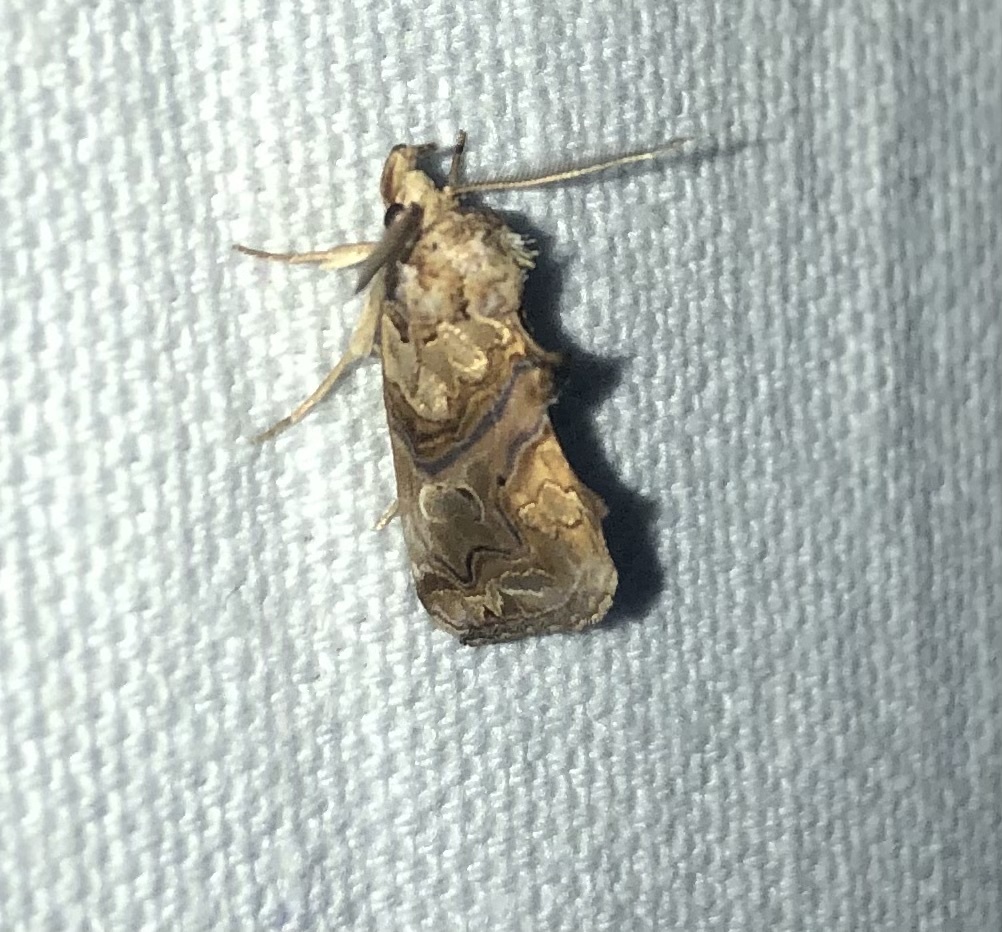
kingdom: Animalia
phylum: Arthropoda
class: Insecta
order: Lepidoptera
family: Erebidae
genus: Plusiodonta
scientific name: Plusiodonta compressipalpis
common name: Moonseed moth
